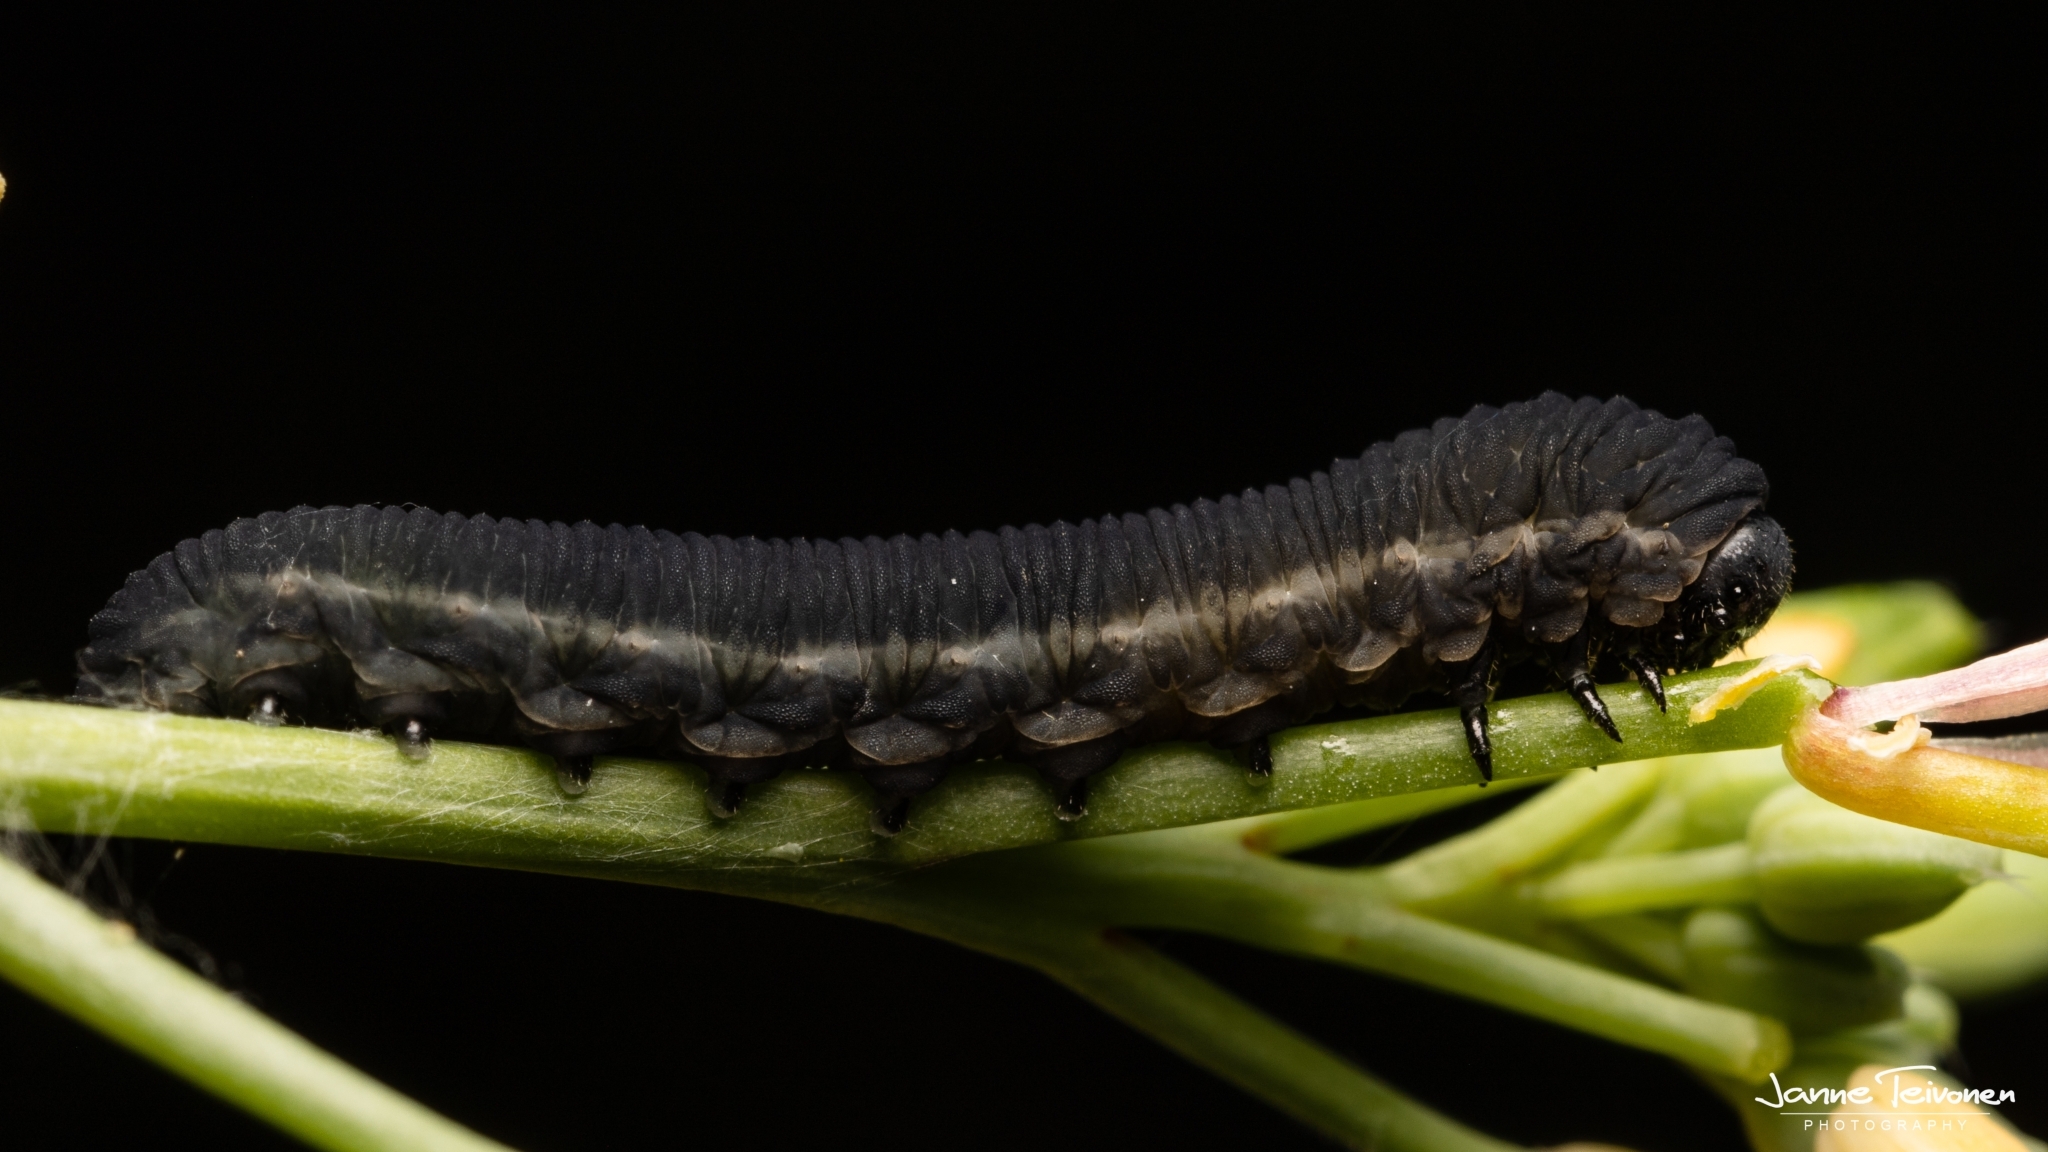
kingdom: Animalia
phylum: Arthropoda
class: Insecta
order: Hymenoptera
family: Tenthredinidae
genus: Athalia
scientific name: Athalia rosae
